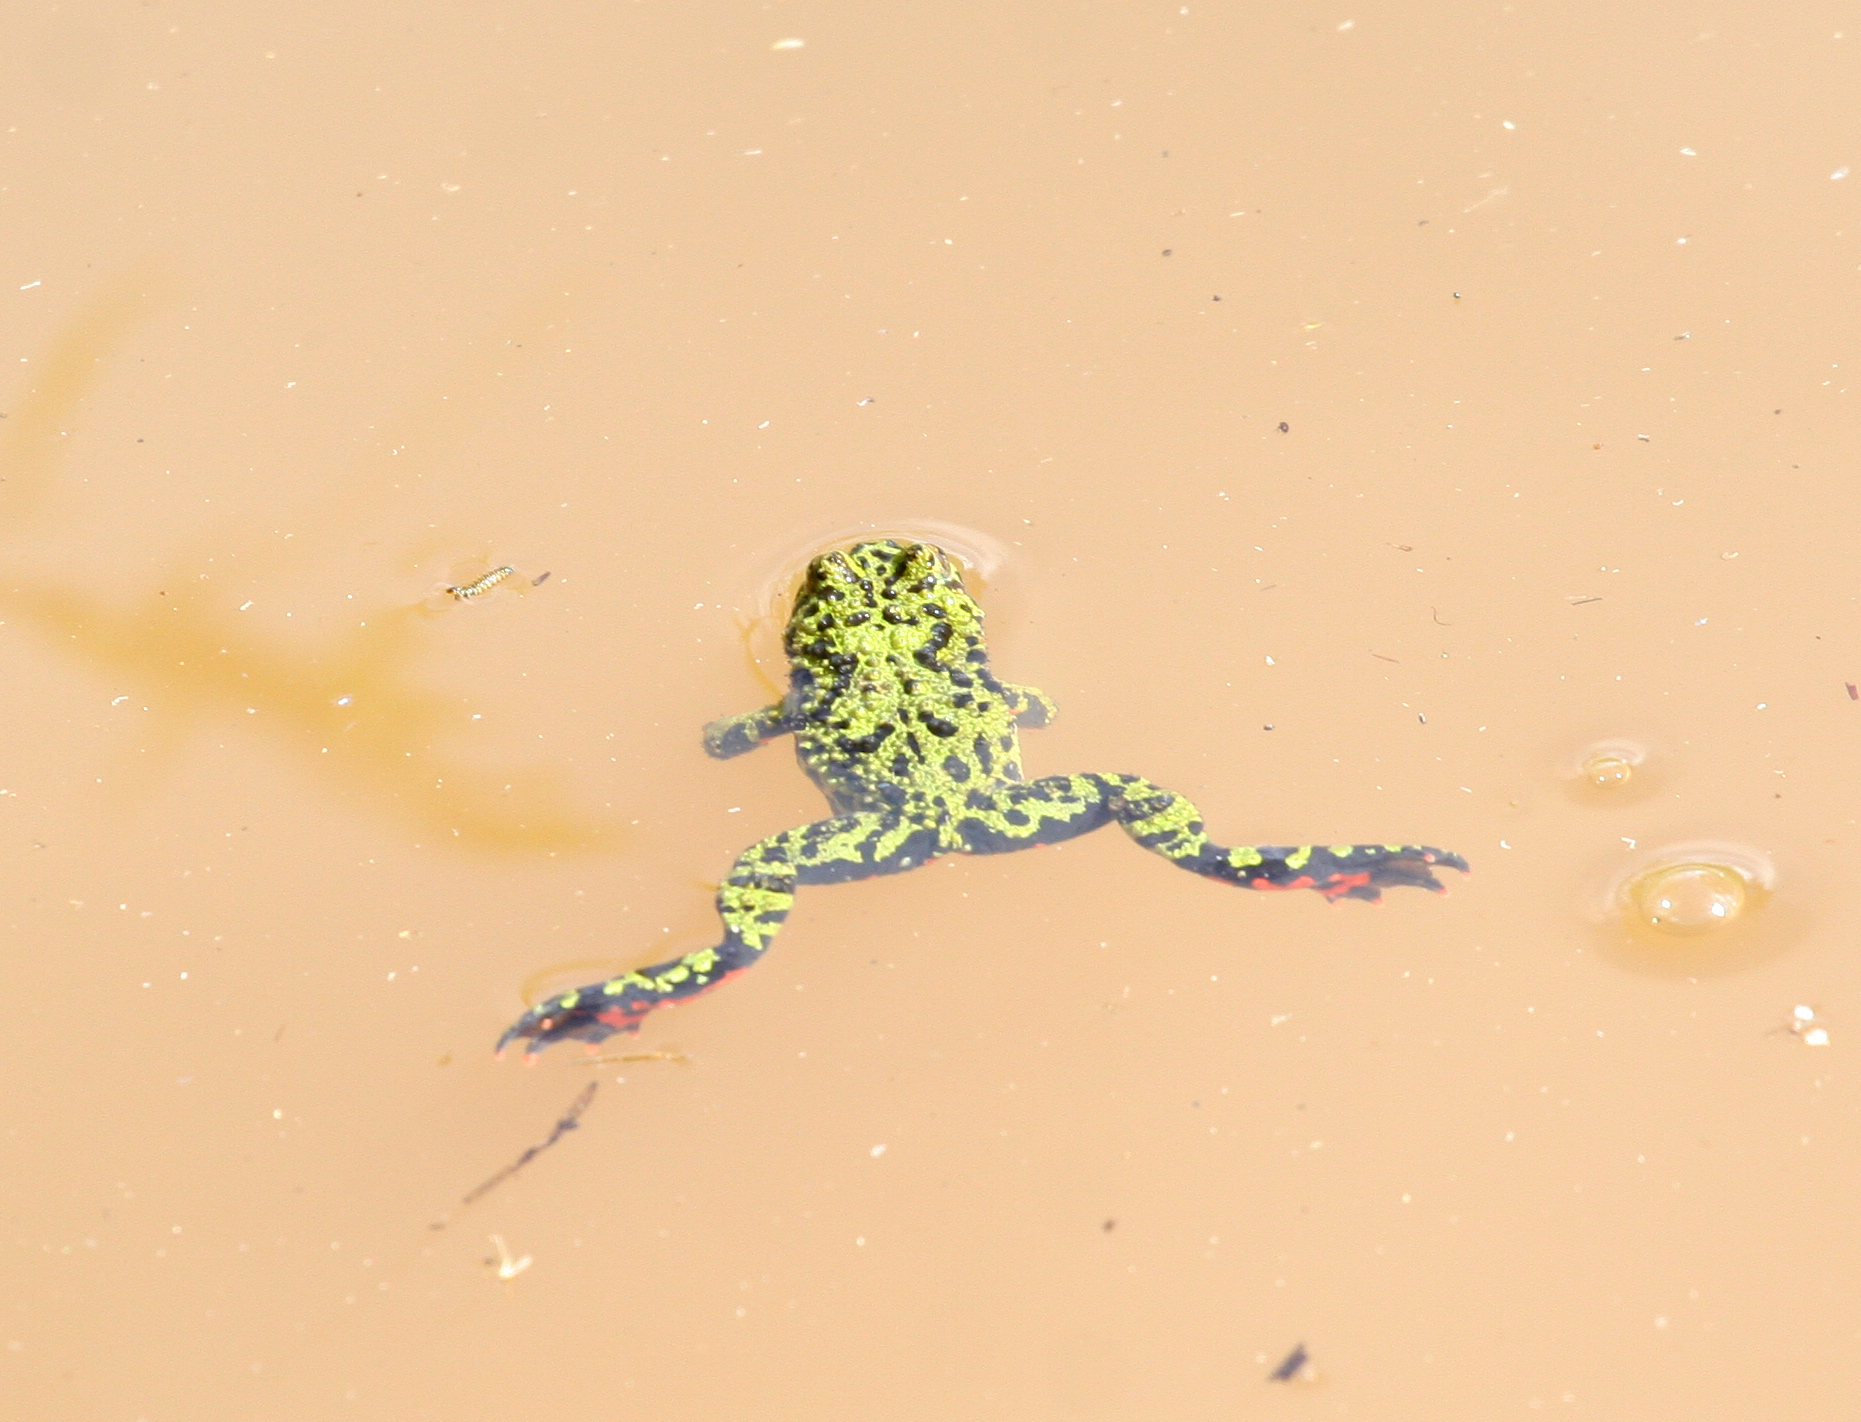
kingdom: Animalia
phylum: Chordata
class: Amphibia
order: Anura
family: Bombinatoridae
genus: Bombina
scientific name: Bombina orientalis
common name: Oriental firebelly toad
